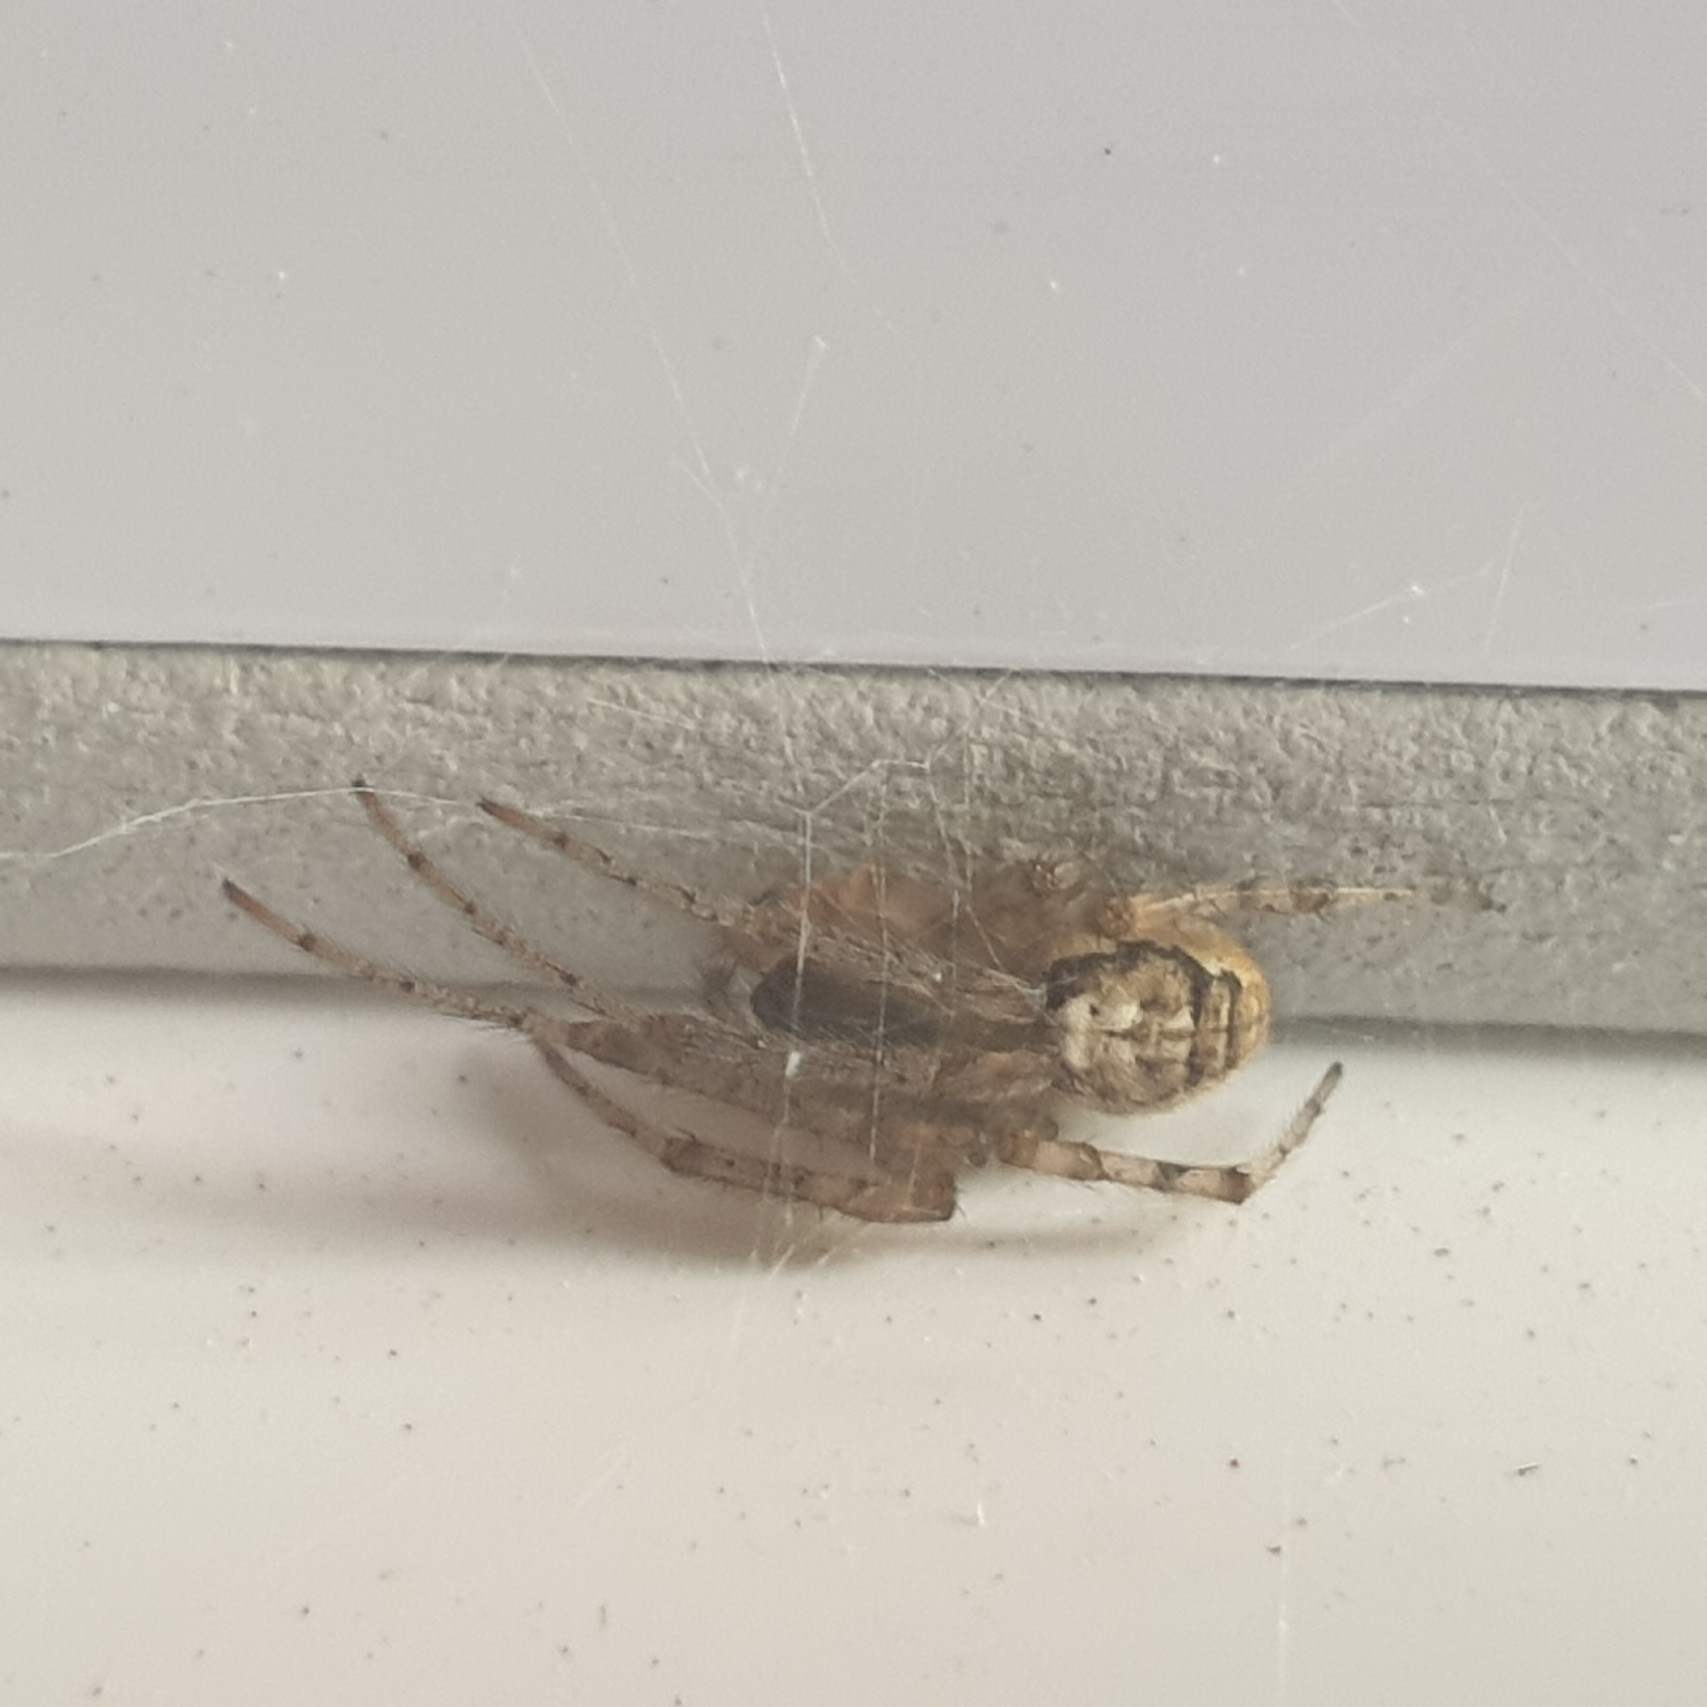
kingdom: Animalia
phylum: Arthropoda
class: Arachnida
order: Araneae
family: Araneidae
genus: Zygiella
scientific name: Zygiella x-notata
